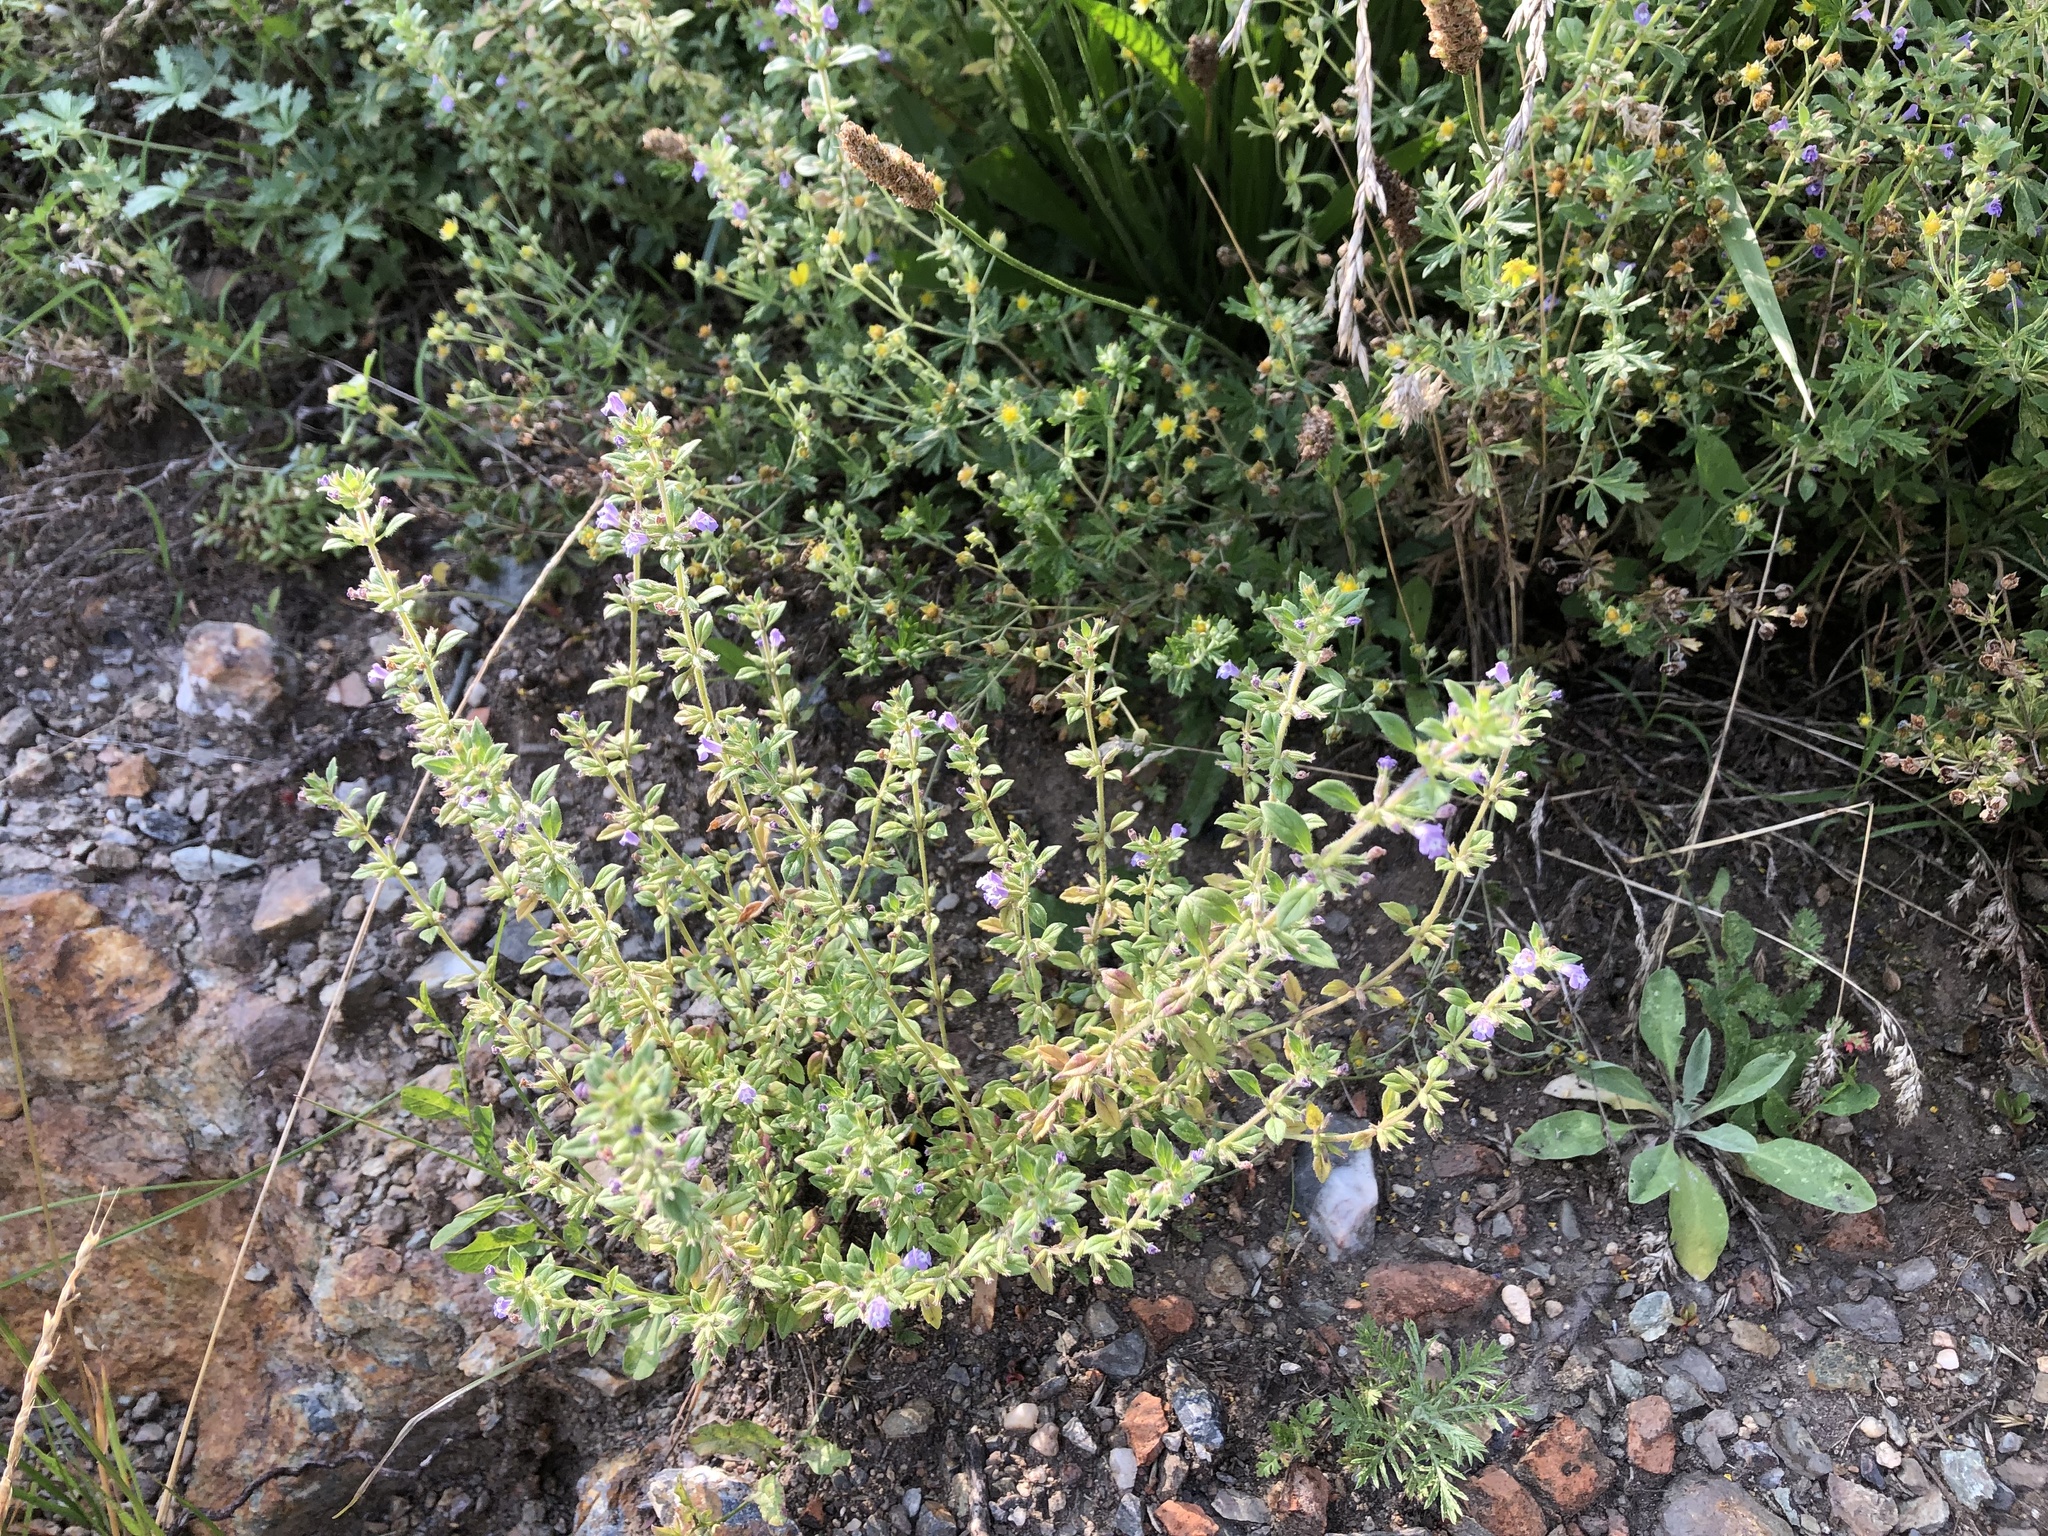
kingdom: Plantae
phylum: Tracheophyta
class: Magnoliopsida
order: Lamiales
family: Lamiaceae
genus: Clinopodium
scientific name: Clinopodium acinos
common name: Basil thyme
